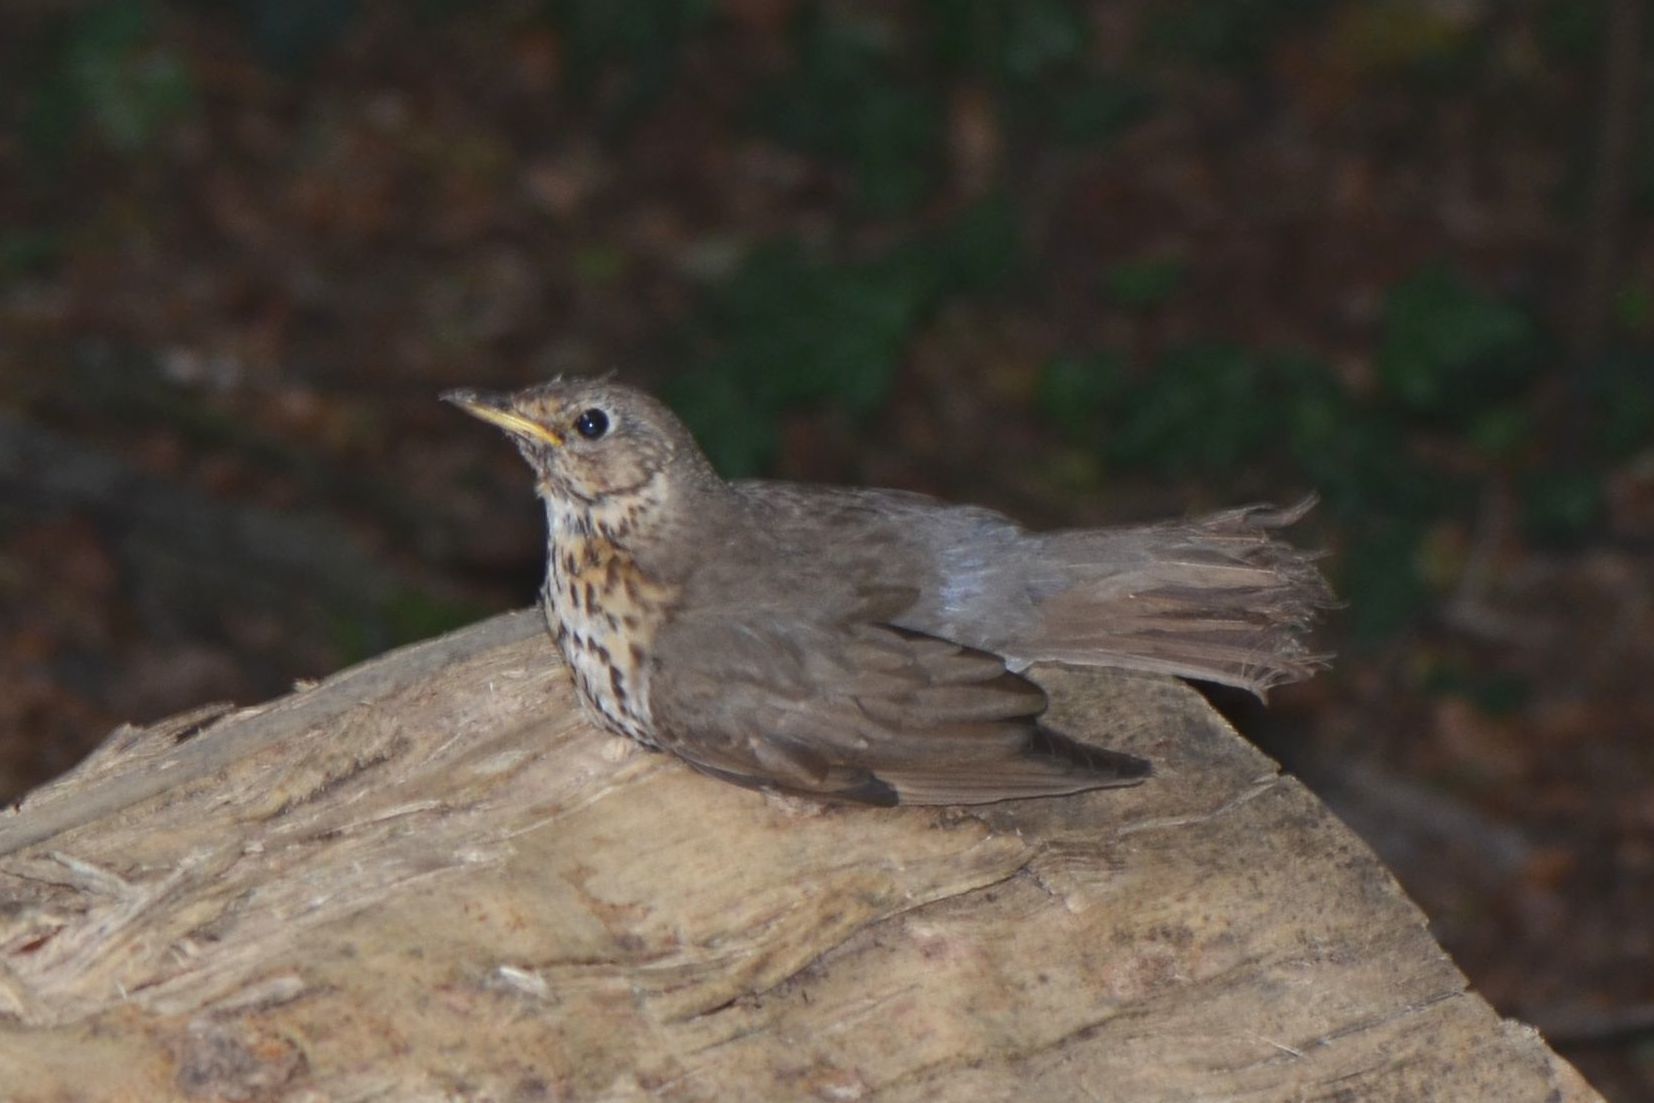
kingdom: Animalia
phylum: Chordata
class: Aves
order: Passeriformes
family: Turdidae
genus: Turdus
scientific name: Turdus philomelos
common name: Song thrush
